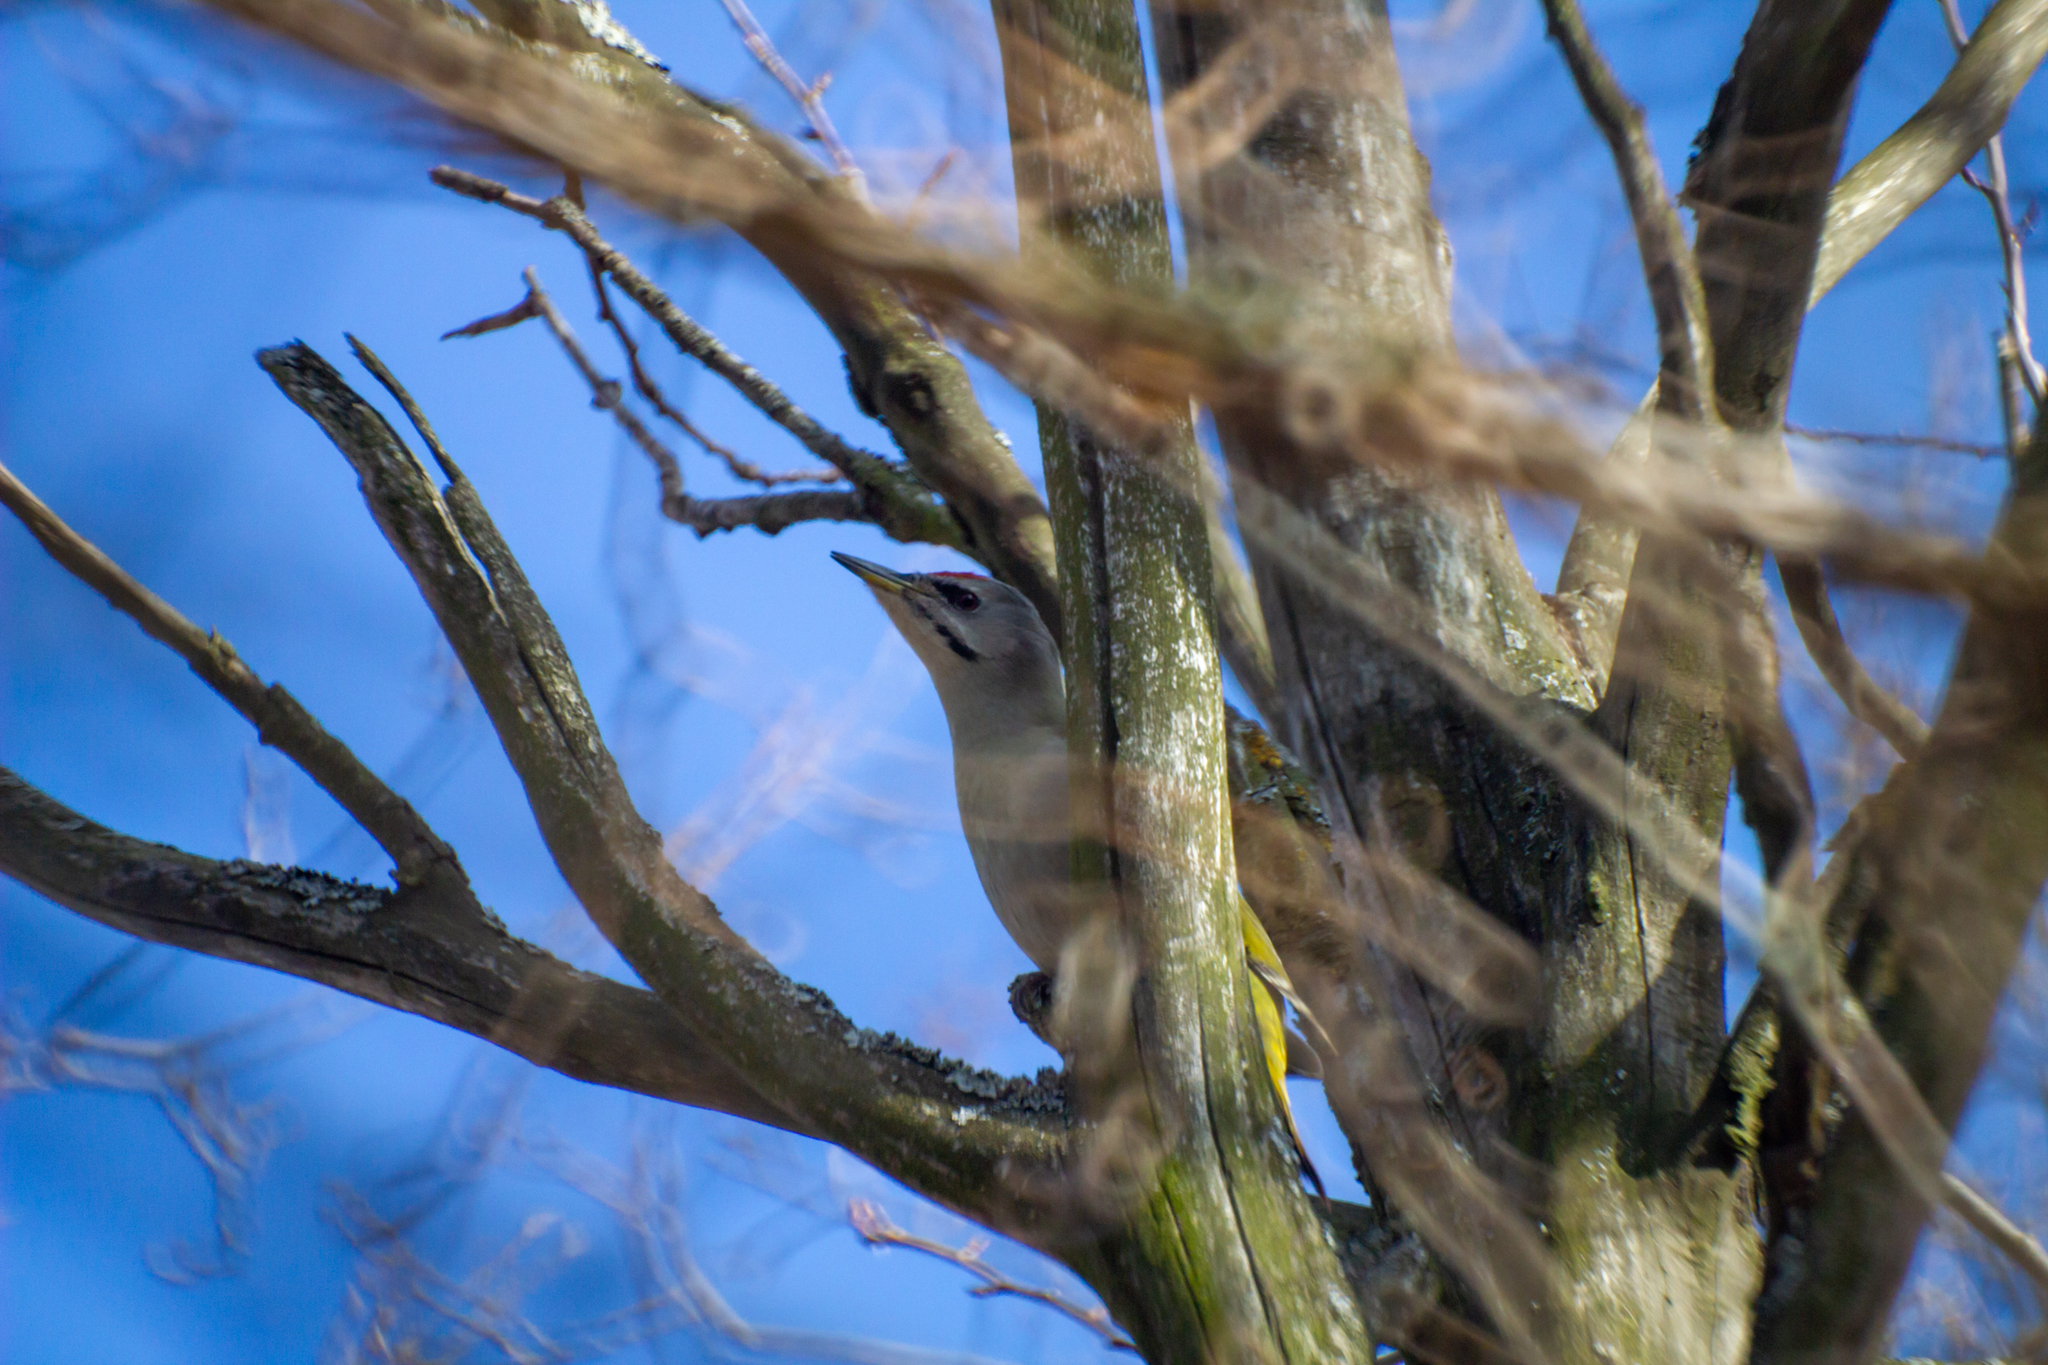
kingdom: Animalia
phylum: Chordata
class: Aves
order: Piciformes
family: Picidae
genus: Picus
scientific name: Picus canus
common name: Grey-headed woodpecker
